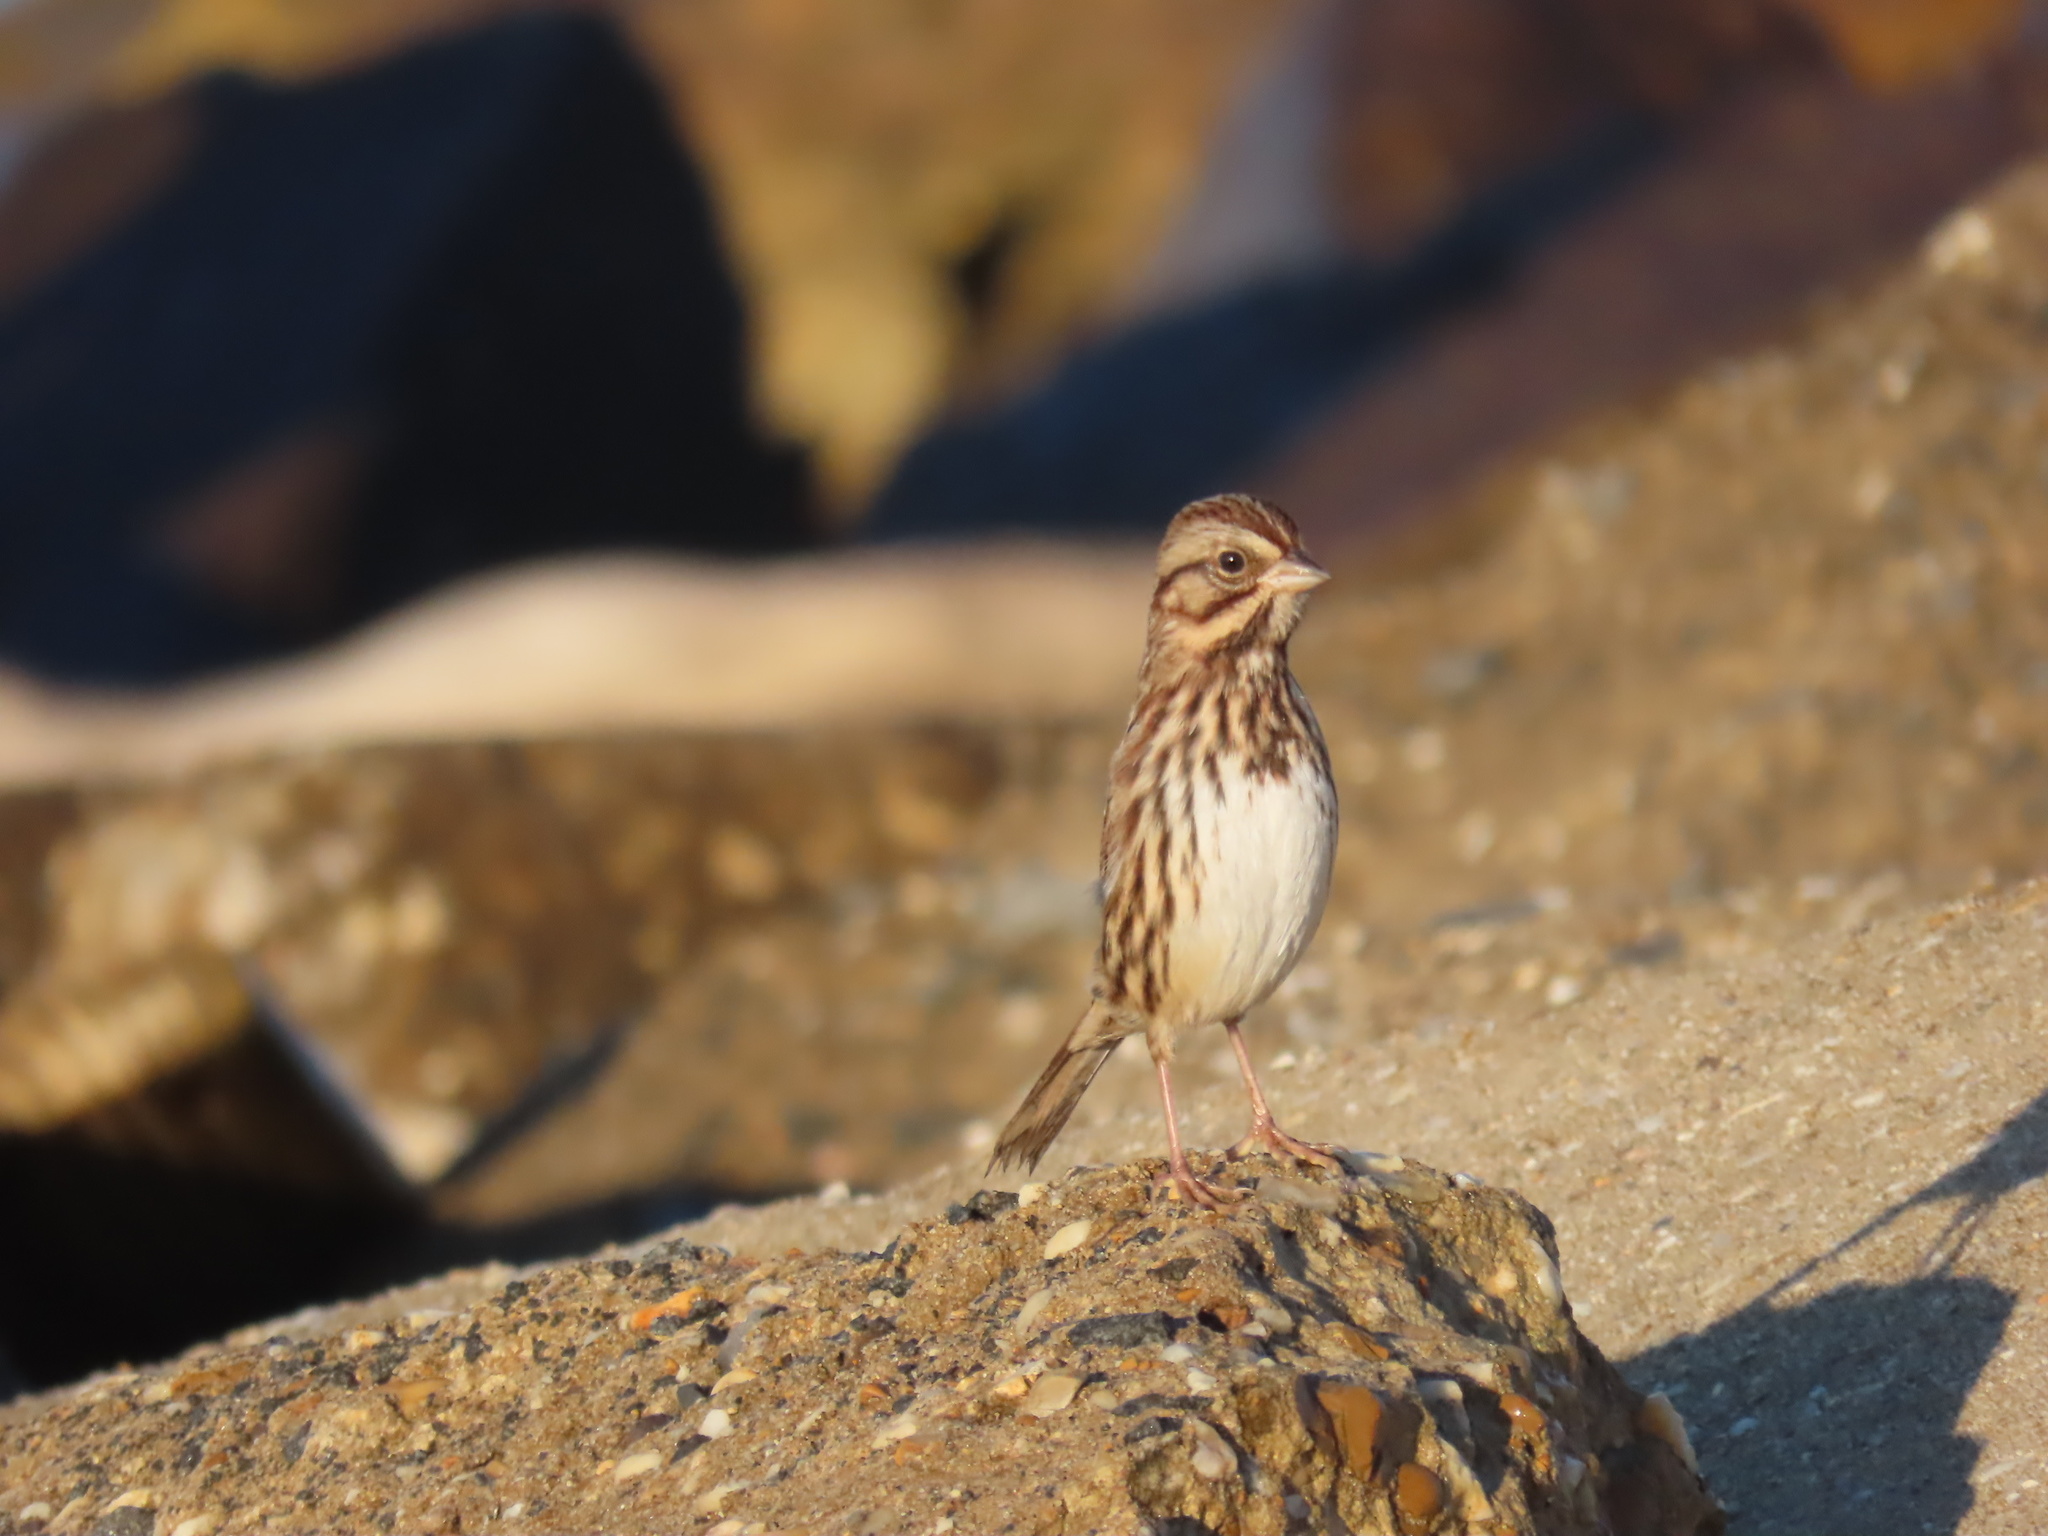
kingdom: Animalia
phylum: Chordata
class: Aves
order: Passeriformes
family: Passerellidae
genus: Melospiza
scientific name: Melospiza melodia
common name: Song sparrow
